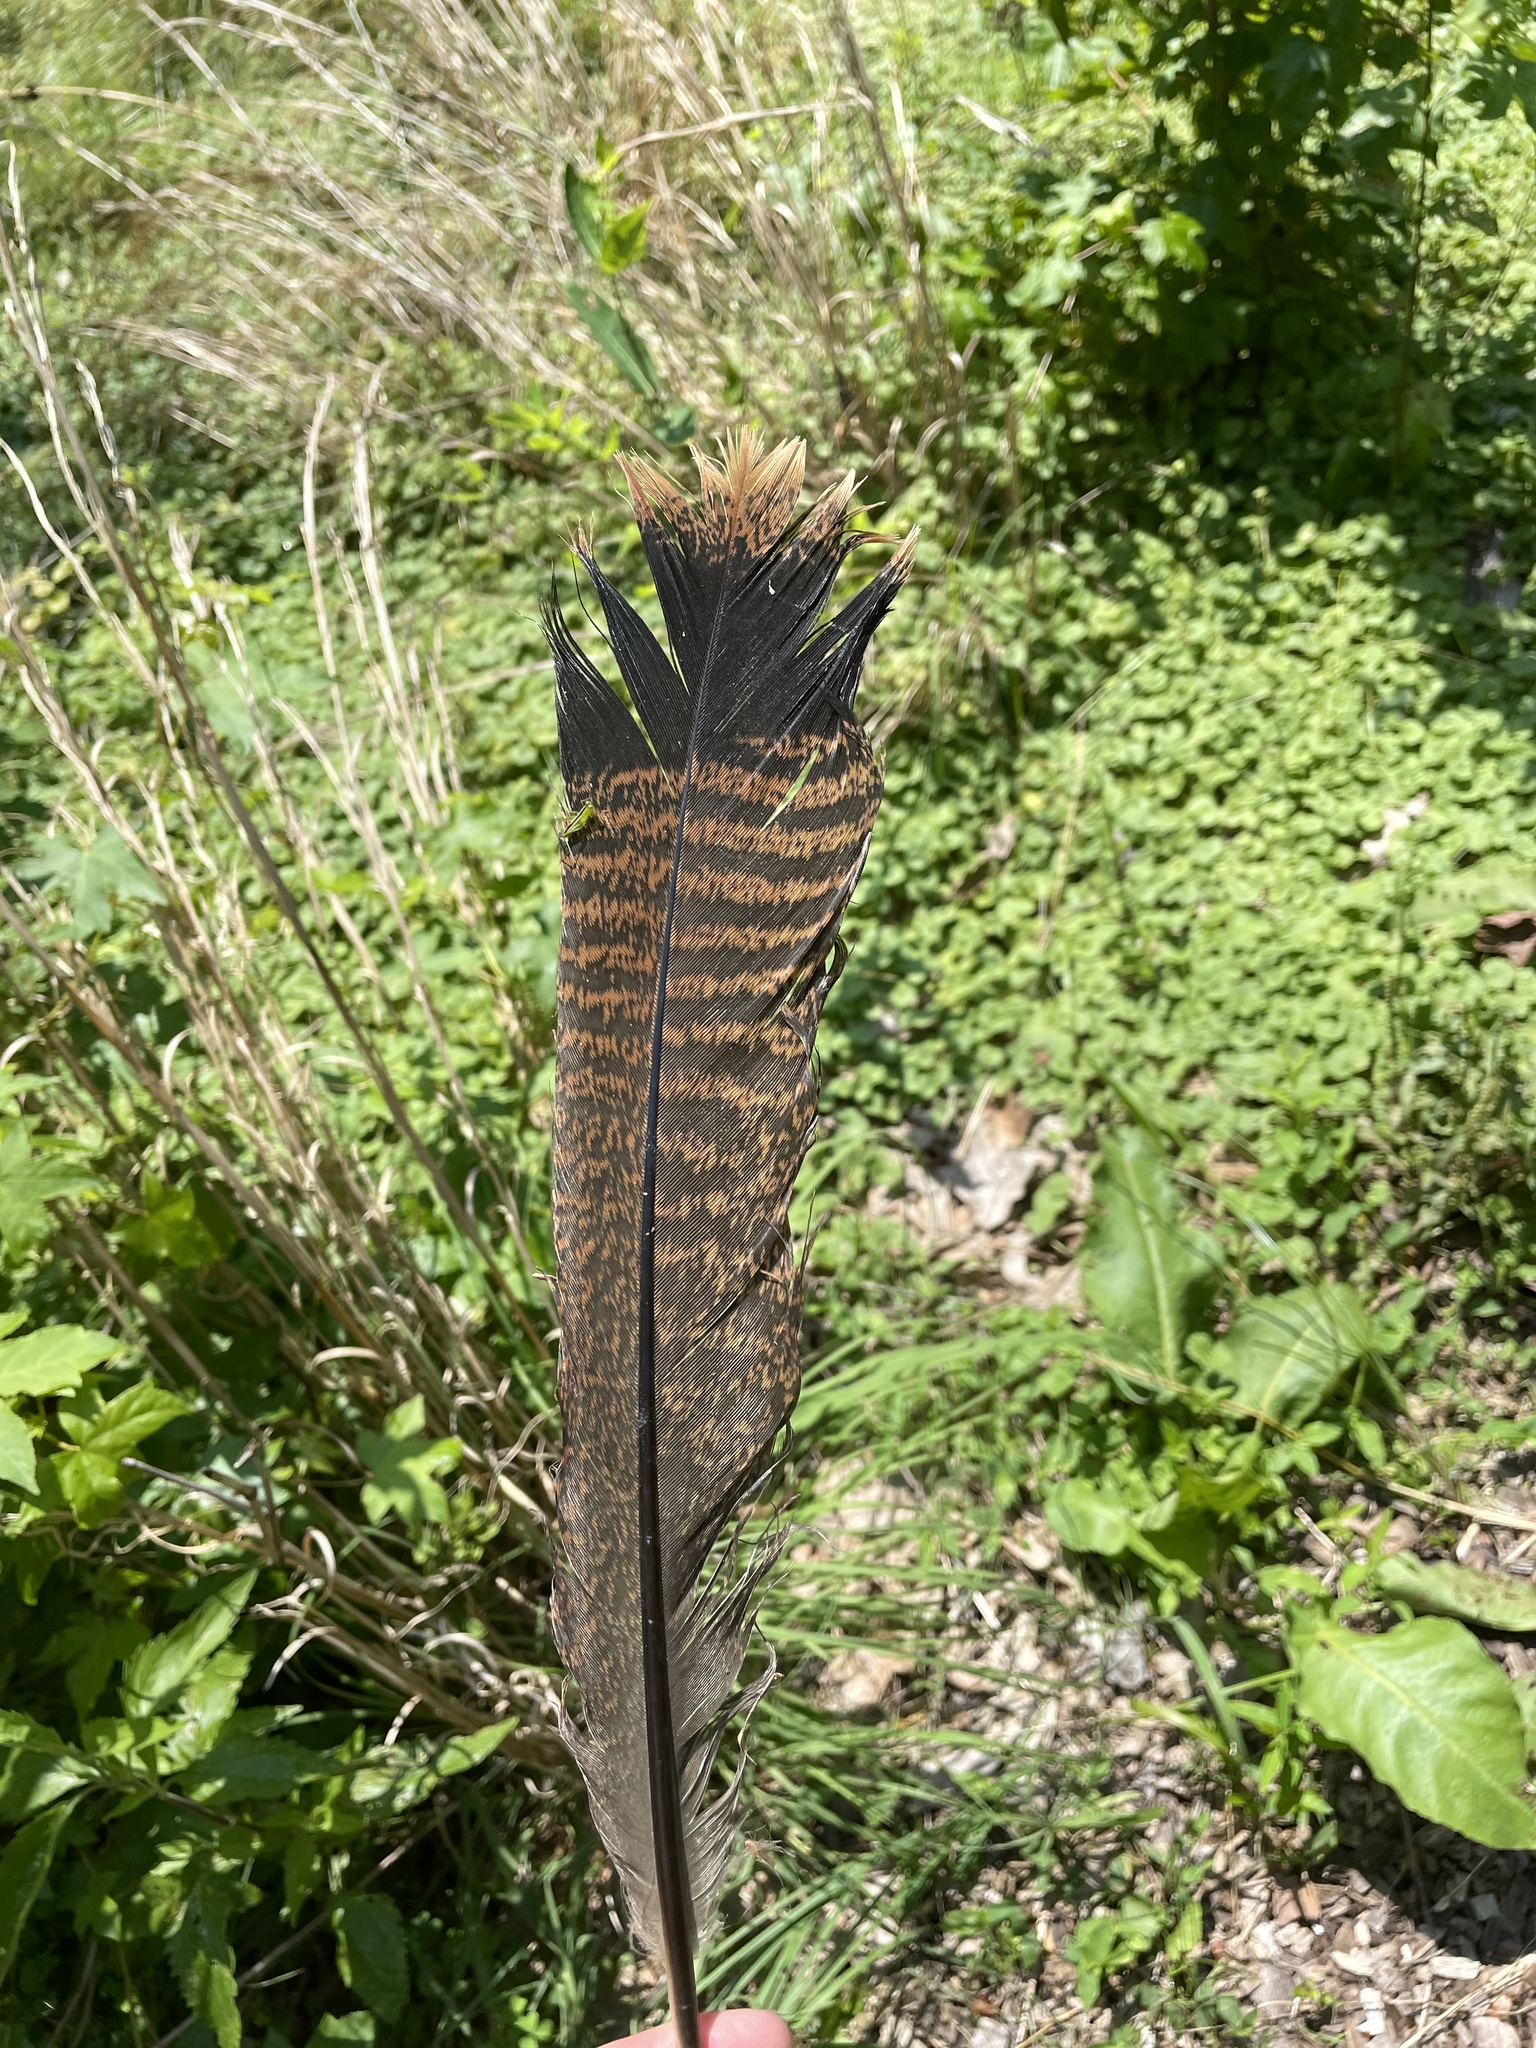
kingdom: Animalia
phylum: Chordata
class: Aves
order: Galliformes
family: Phasianidae
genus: Meleagris
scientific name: Meleagris gallopavo
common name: Wild turkey
